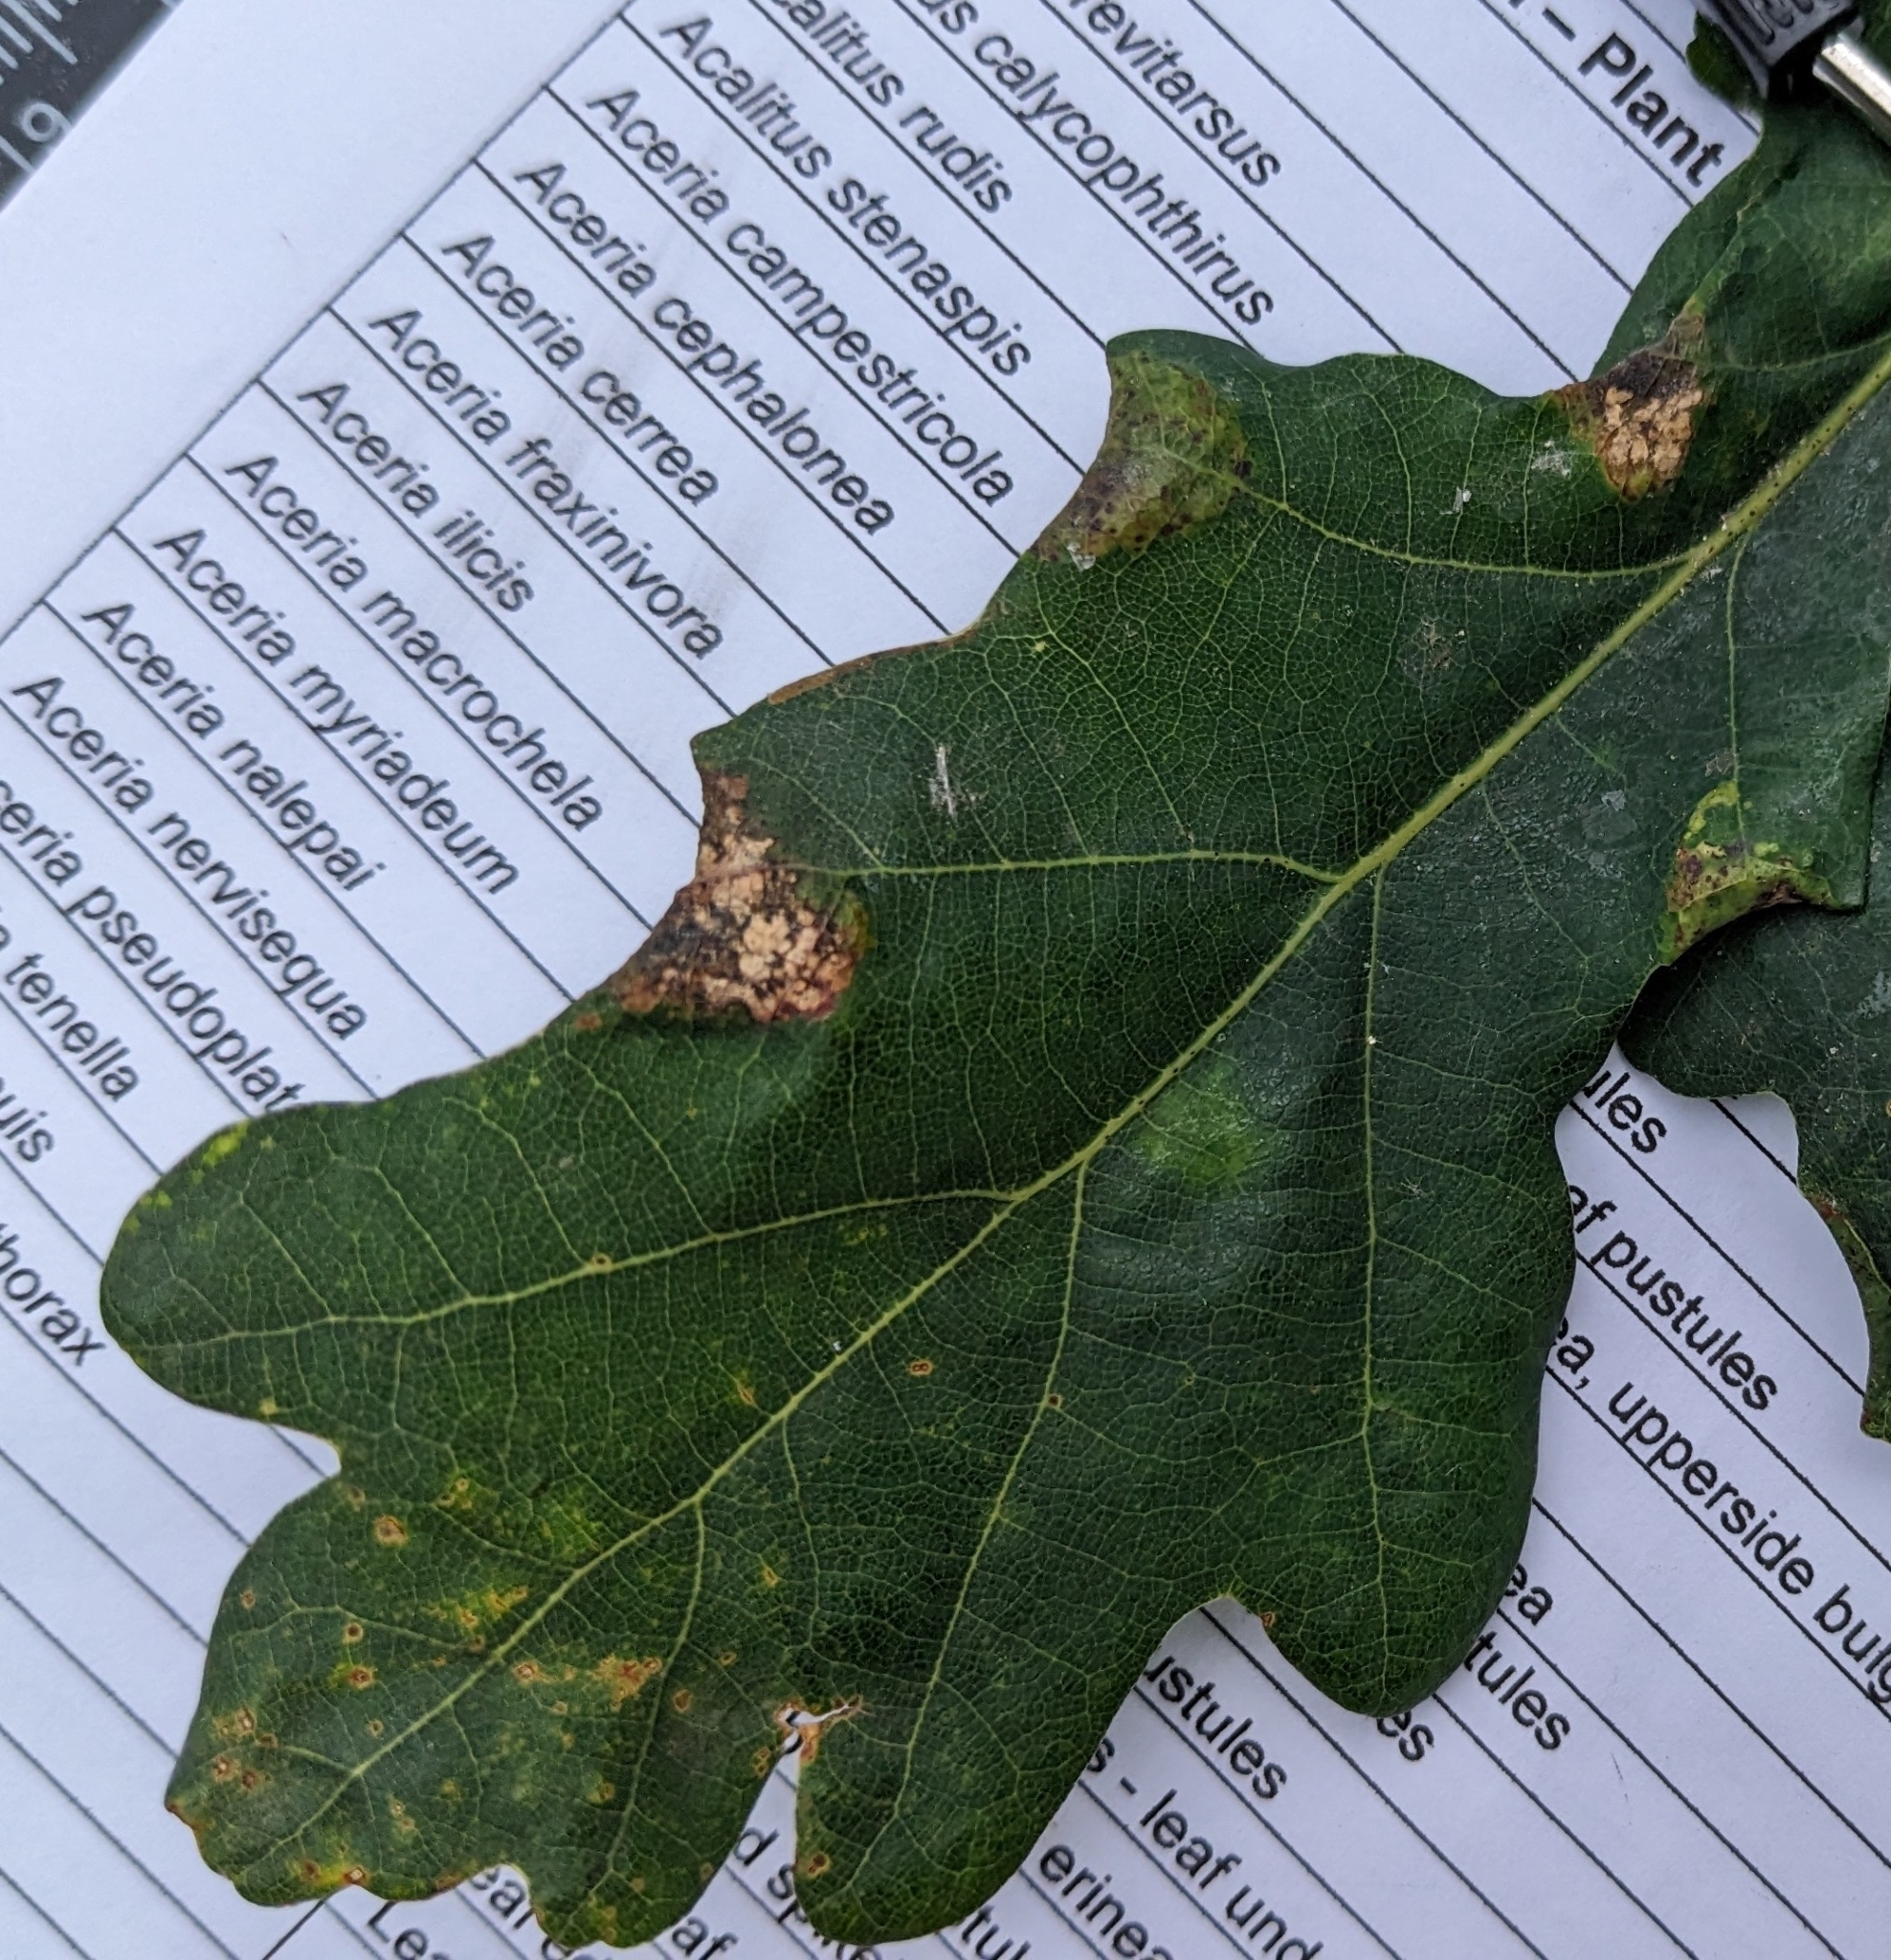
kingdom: Animalia
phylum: Arthropoda
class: Insecta
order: Diptera
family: Cecidomyiidae
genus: Macrodiplosis
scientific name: Macrodiplosis pustularis
